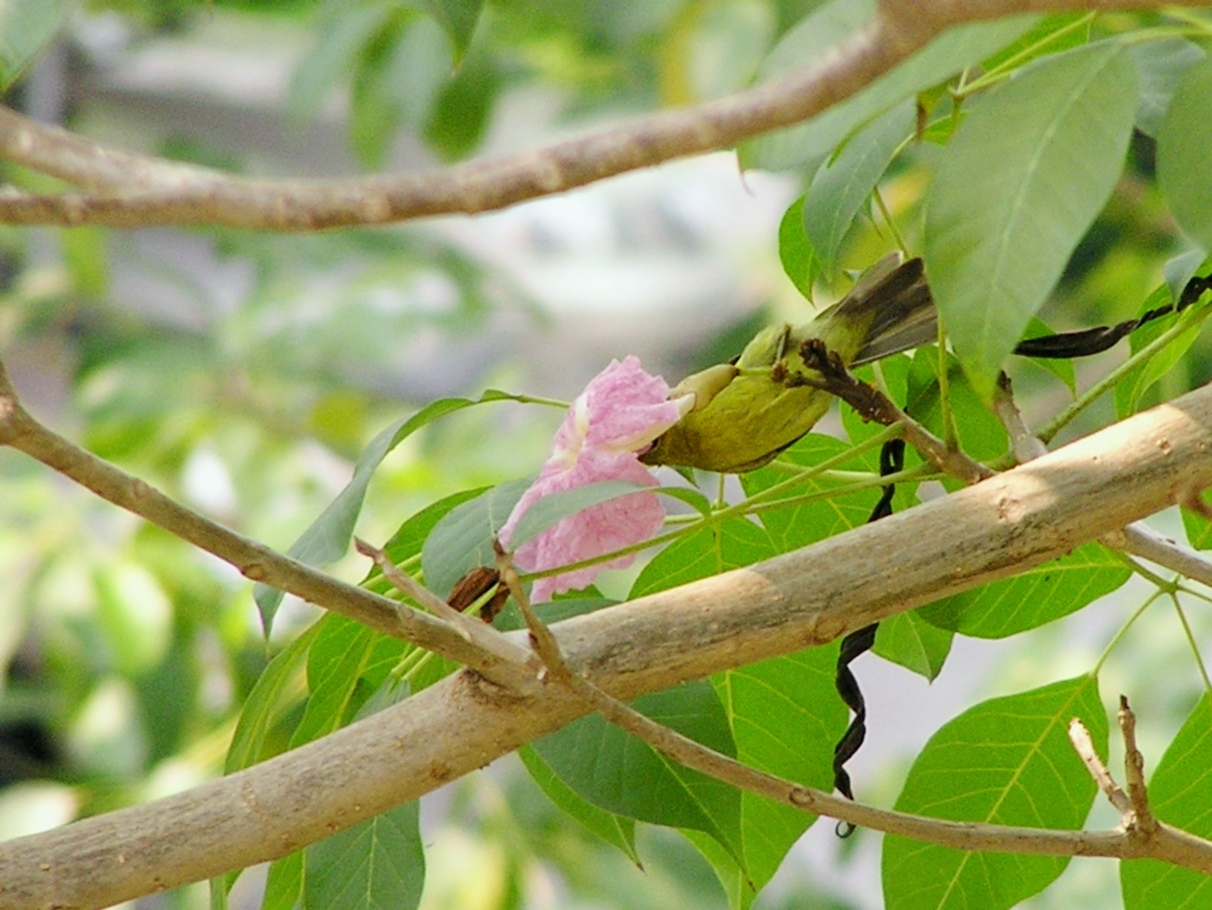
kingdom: Animalia
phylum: Chordata
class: Aves
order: Passeriformes
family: Nectariniidae
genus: Anthreptes
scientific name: Anthreptes malacensis
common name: Brown-throated sunbird
